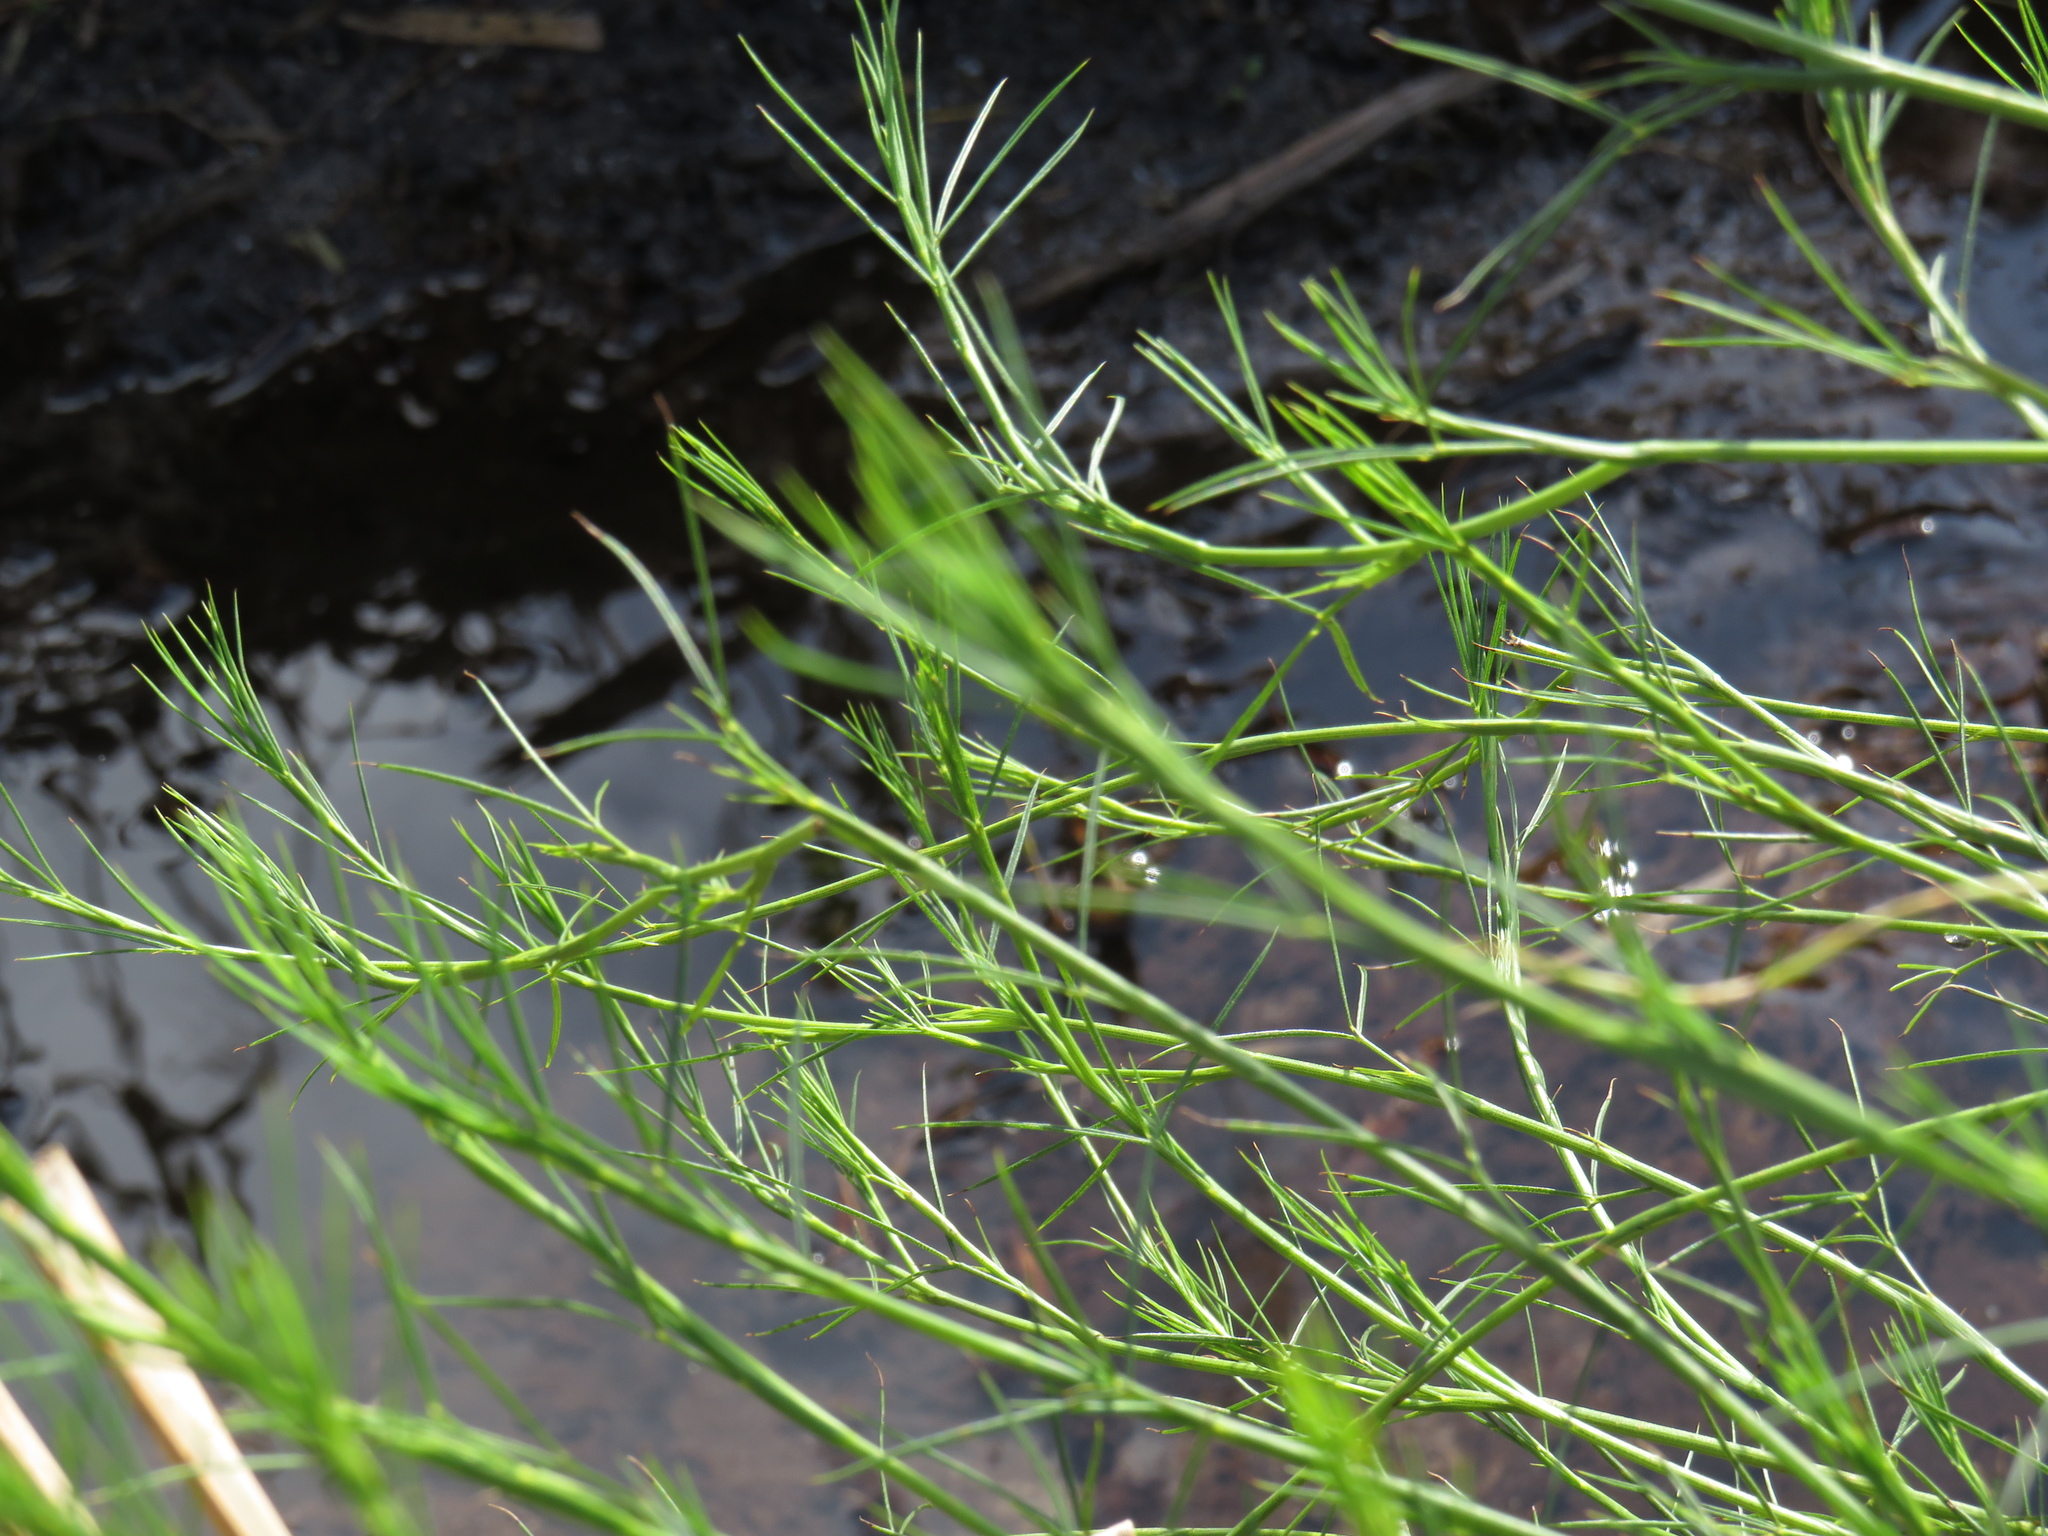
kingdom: Plantae
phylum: Tracheophyta
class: Magnoliopsida
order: Fabales
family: Fabaceae
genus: Psoralea
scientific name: Psoralea fascicularis
